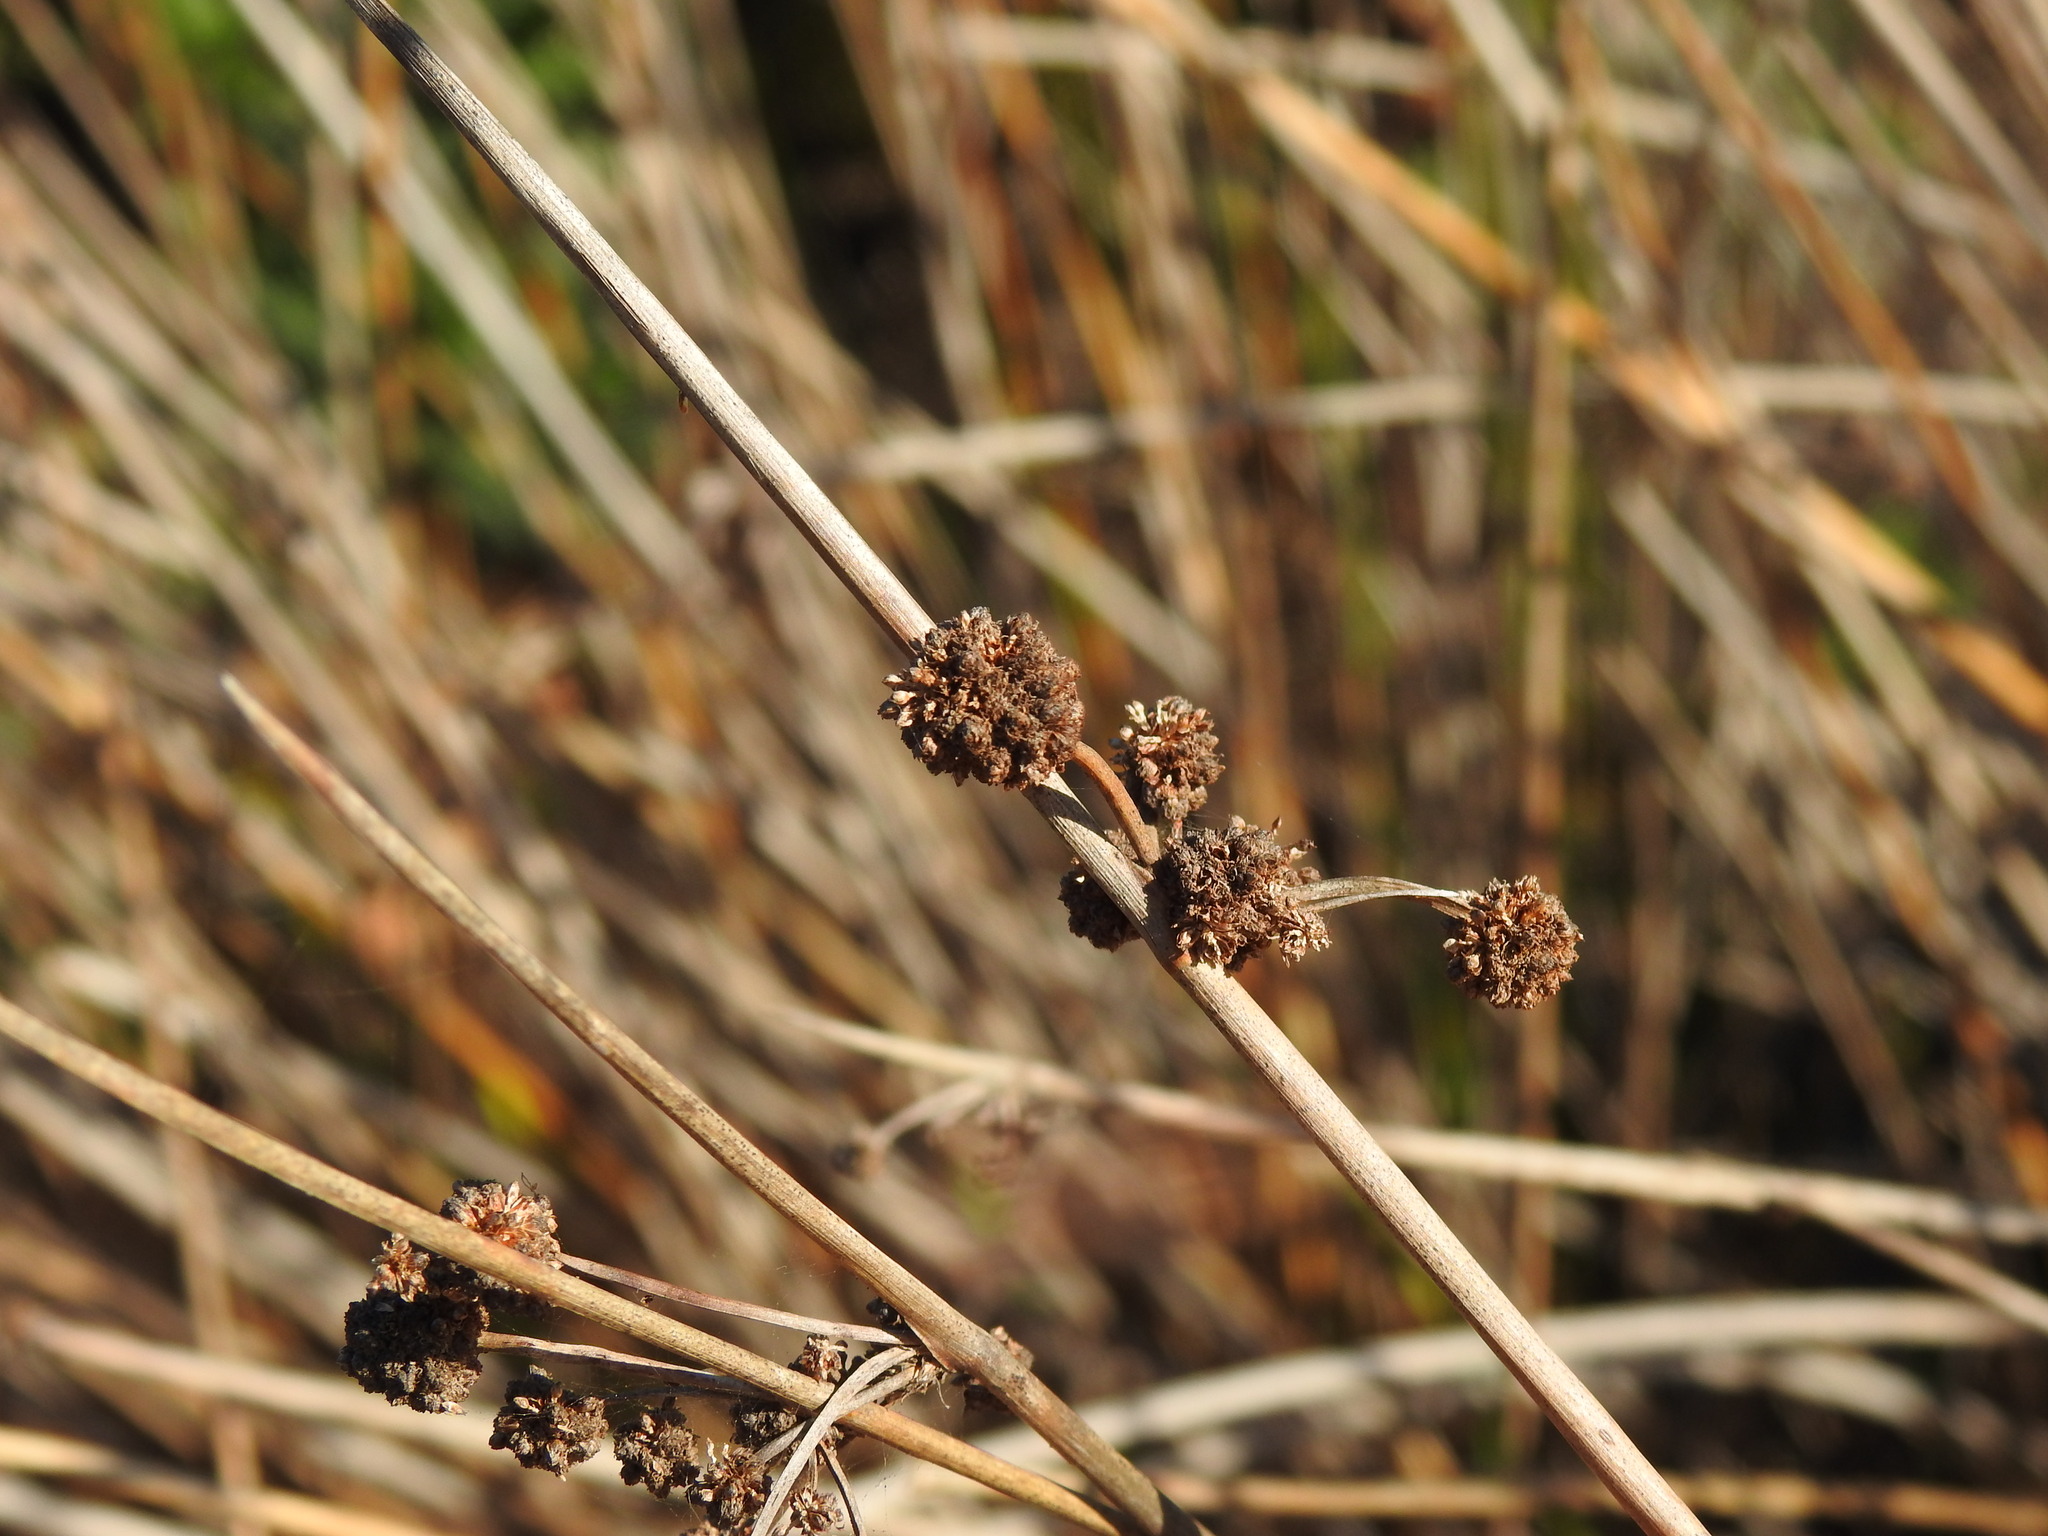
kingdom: Plantae
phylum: Tracheophyta
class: Liliopsida
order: Poales
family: Cyperaceae
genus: Scirpoides
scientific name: Scirpoides holoschoenus
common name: Round-headed club-rush
